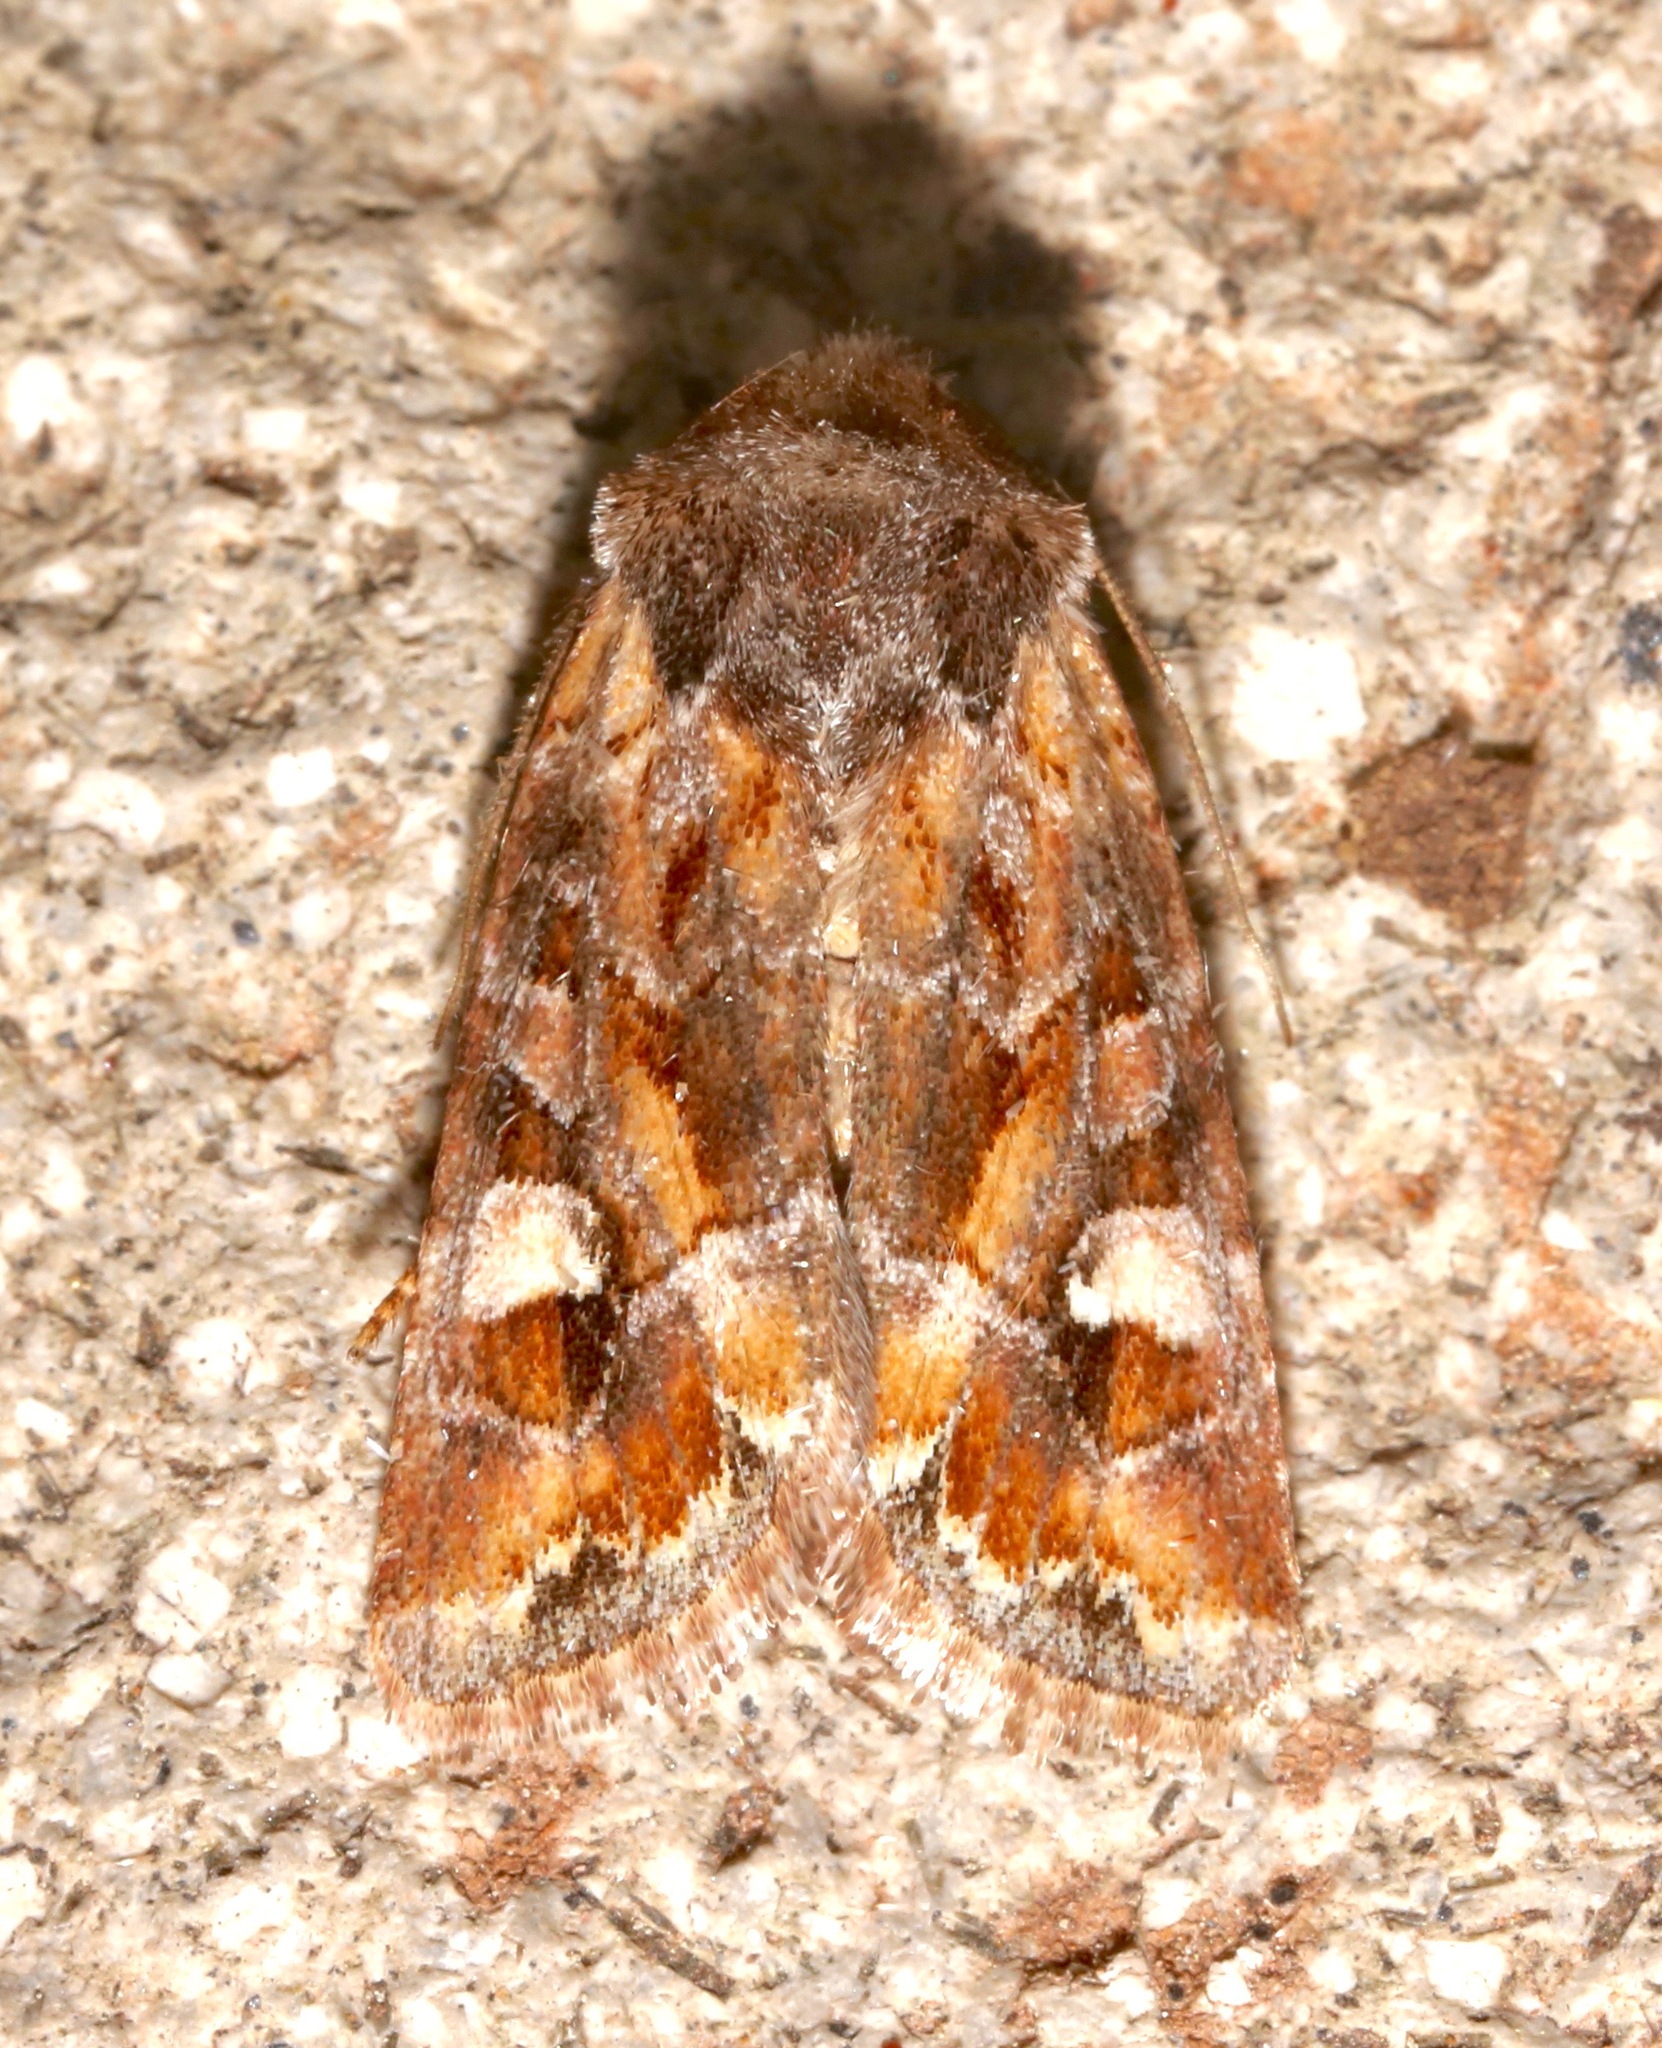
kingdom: Animalia
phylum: Arthropoda
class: Insecta
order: Lepidoptera
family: Noctuidae
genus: Lacinipolia
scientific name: Lacinipolia lepidula
